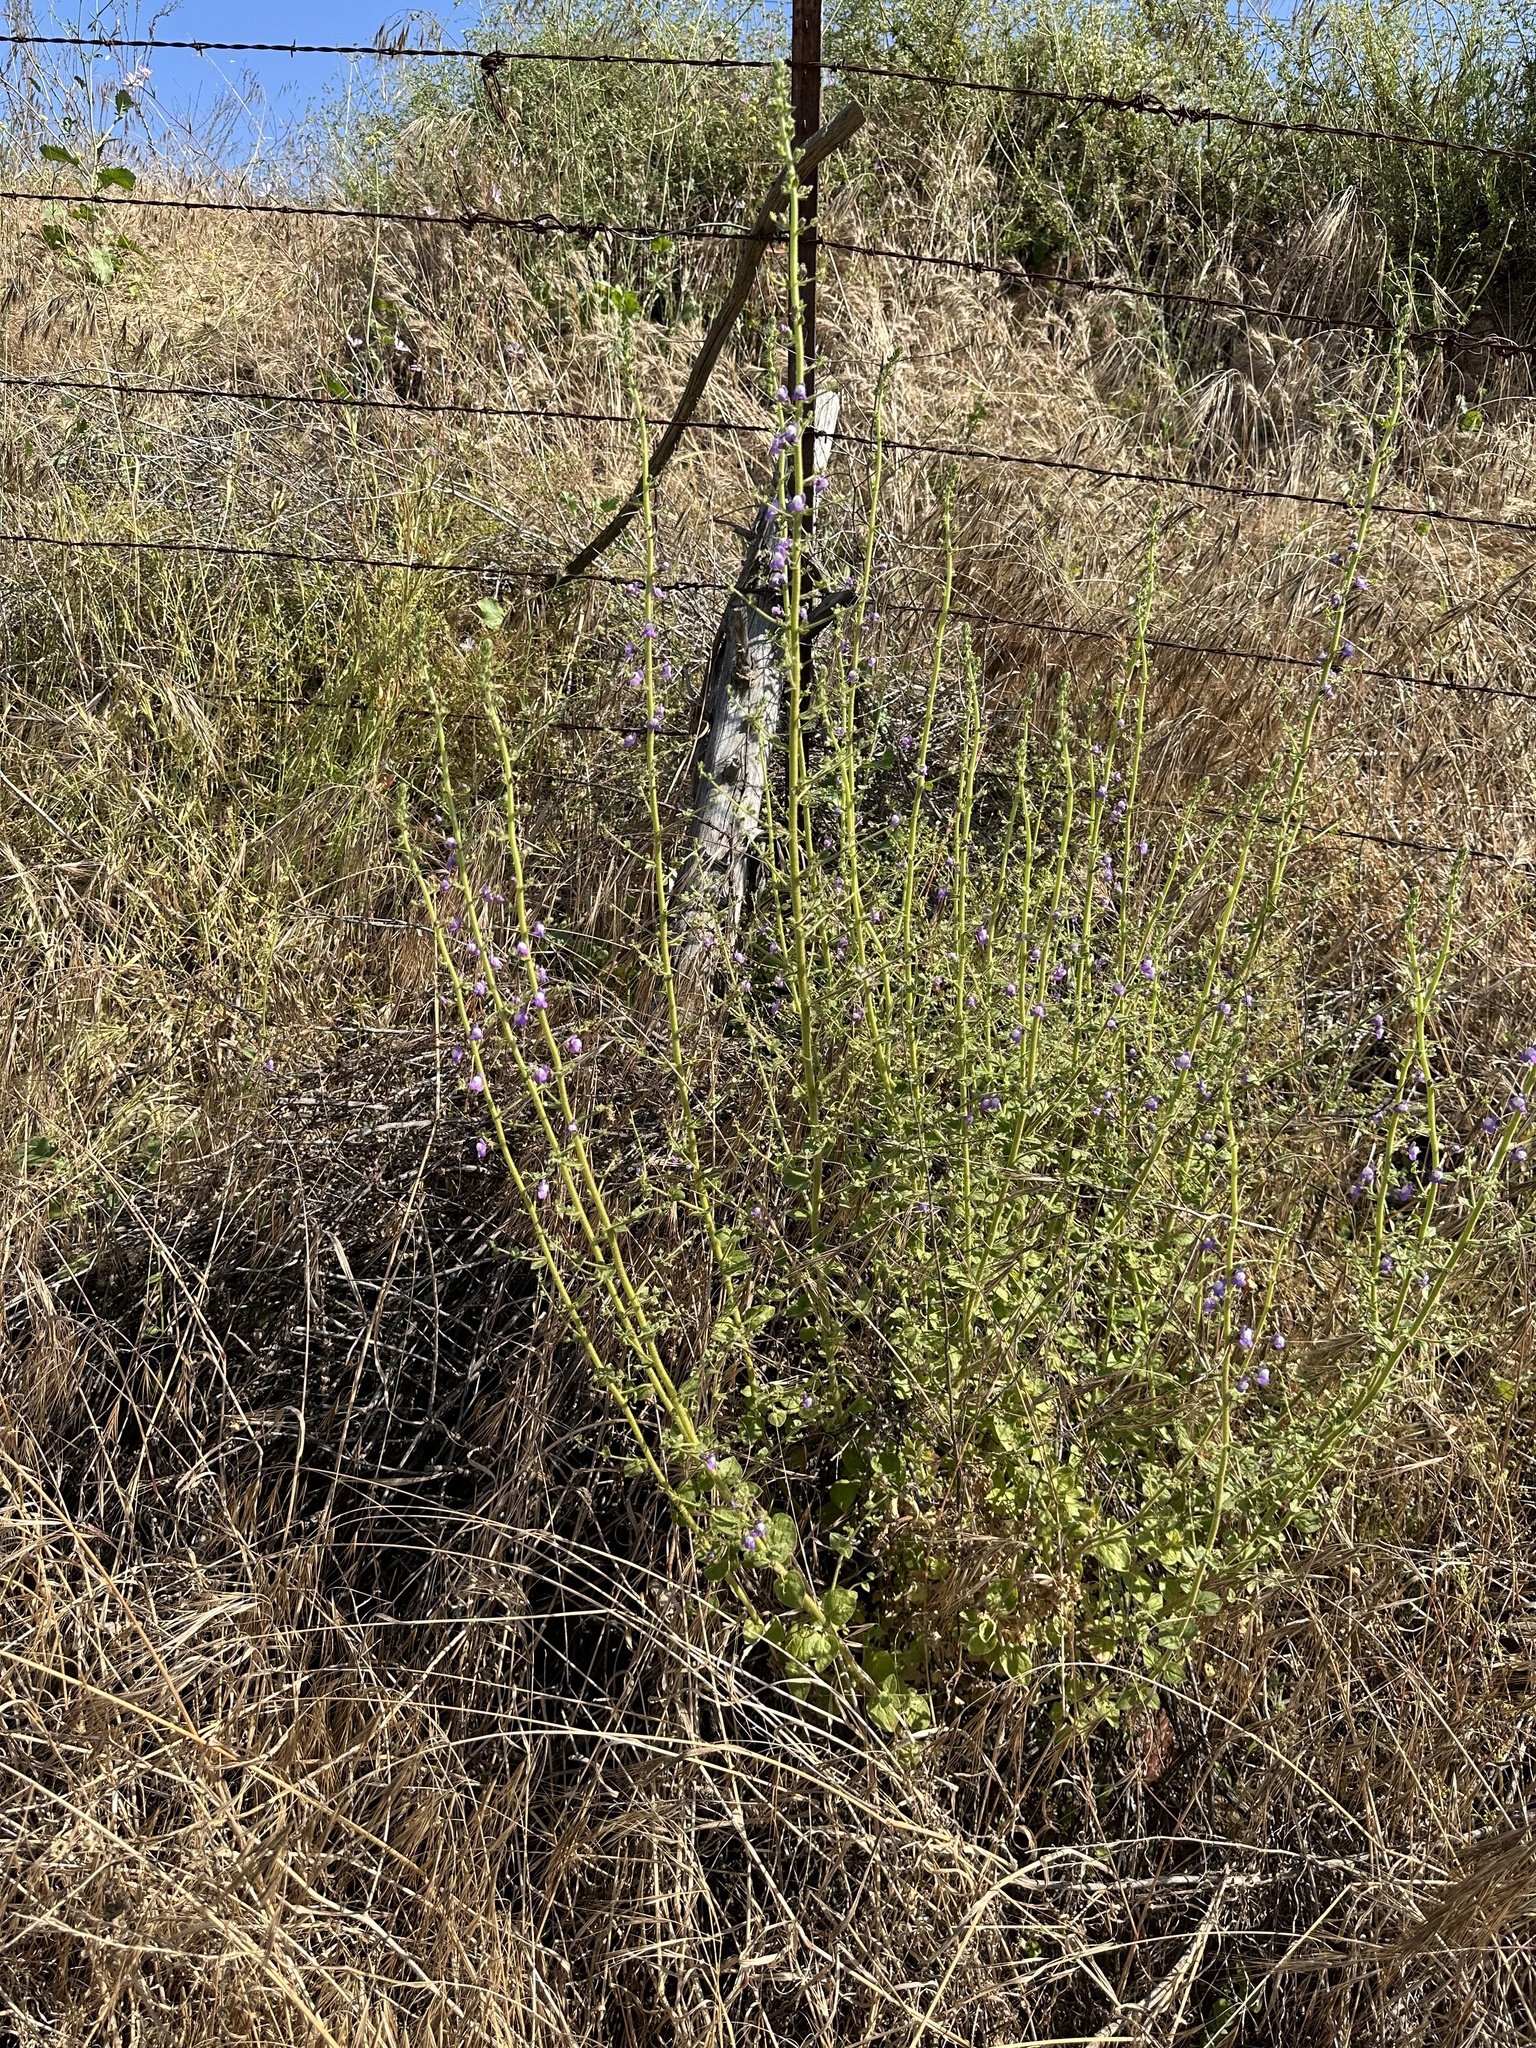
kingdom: Plantae
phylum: Tracheophyta
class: Magnoliopsida
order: Lamiales
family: Plantaginaceae
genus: Sairocarpus
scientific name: Sairocarpus nuttallianus
